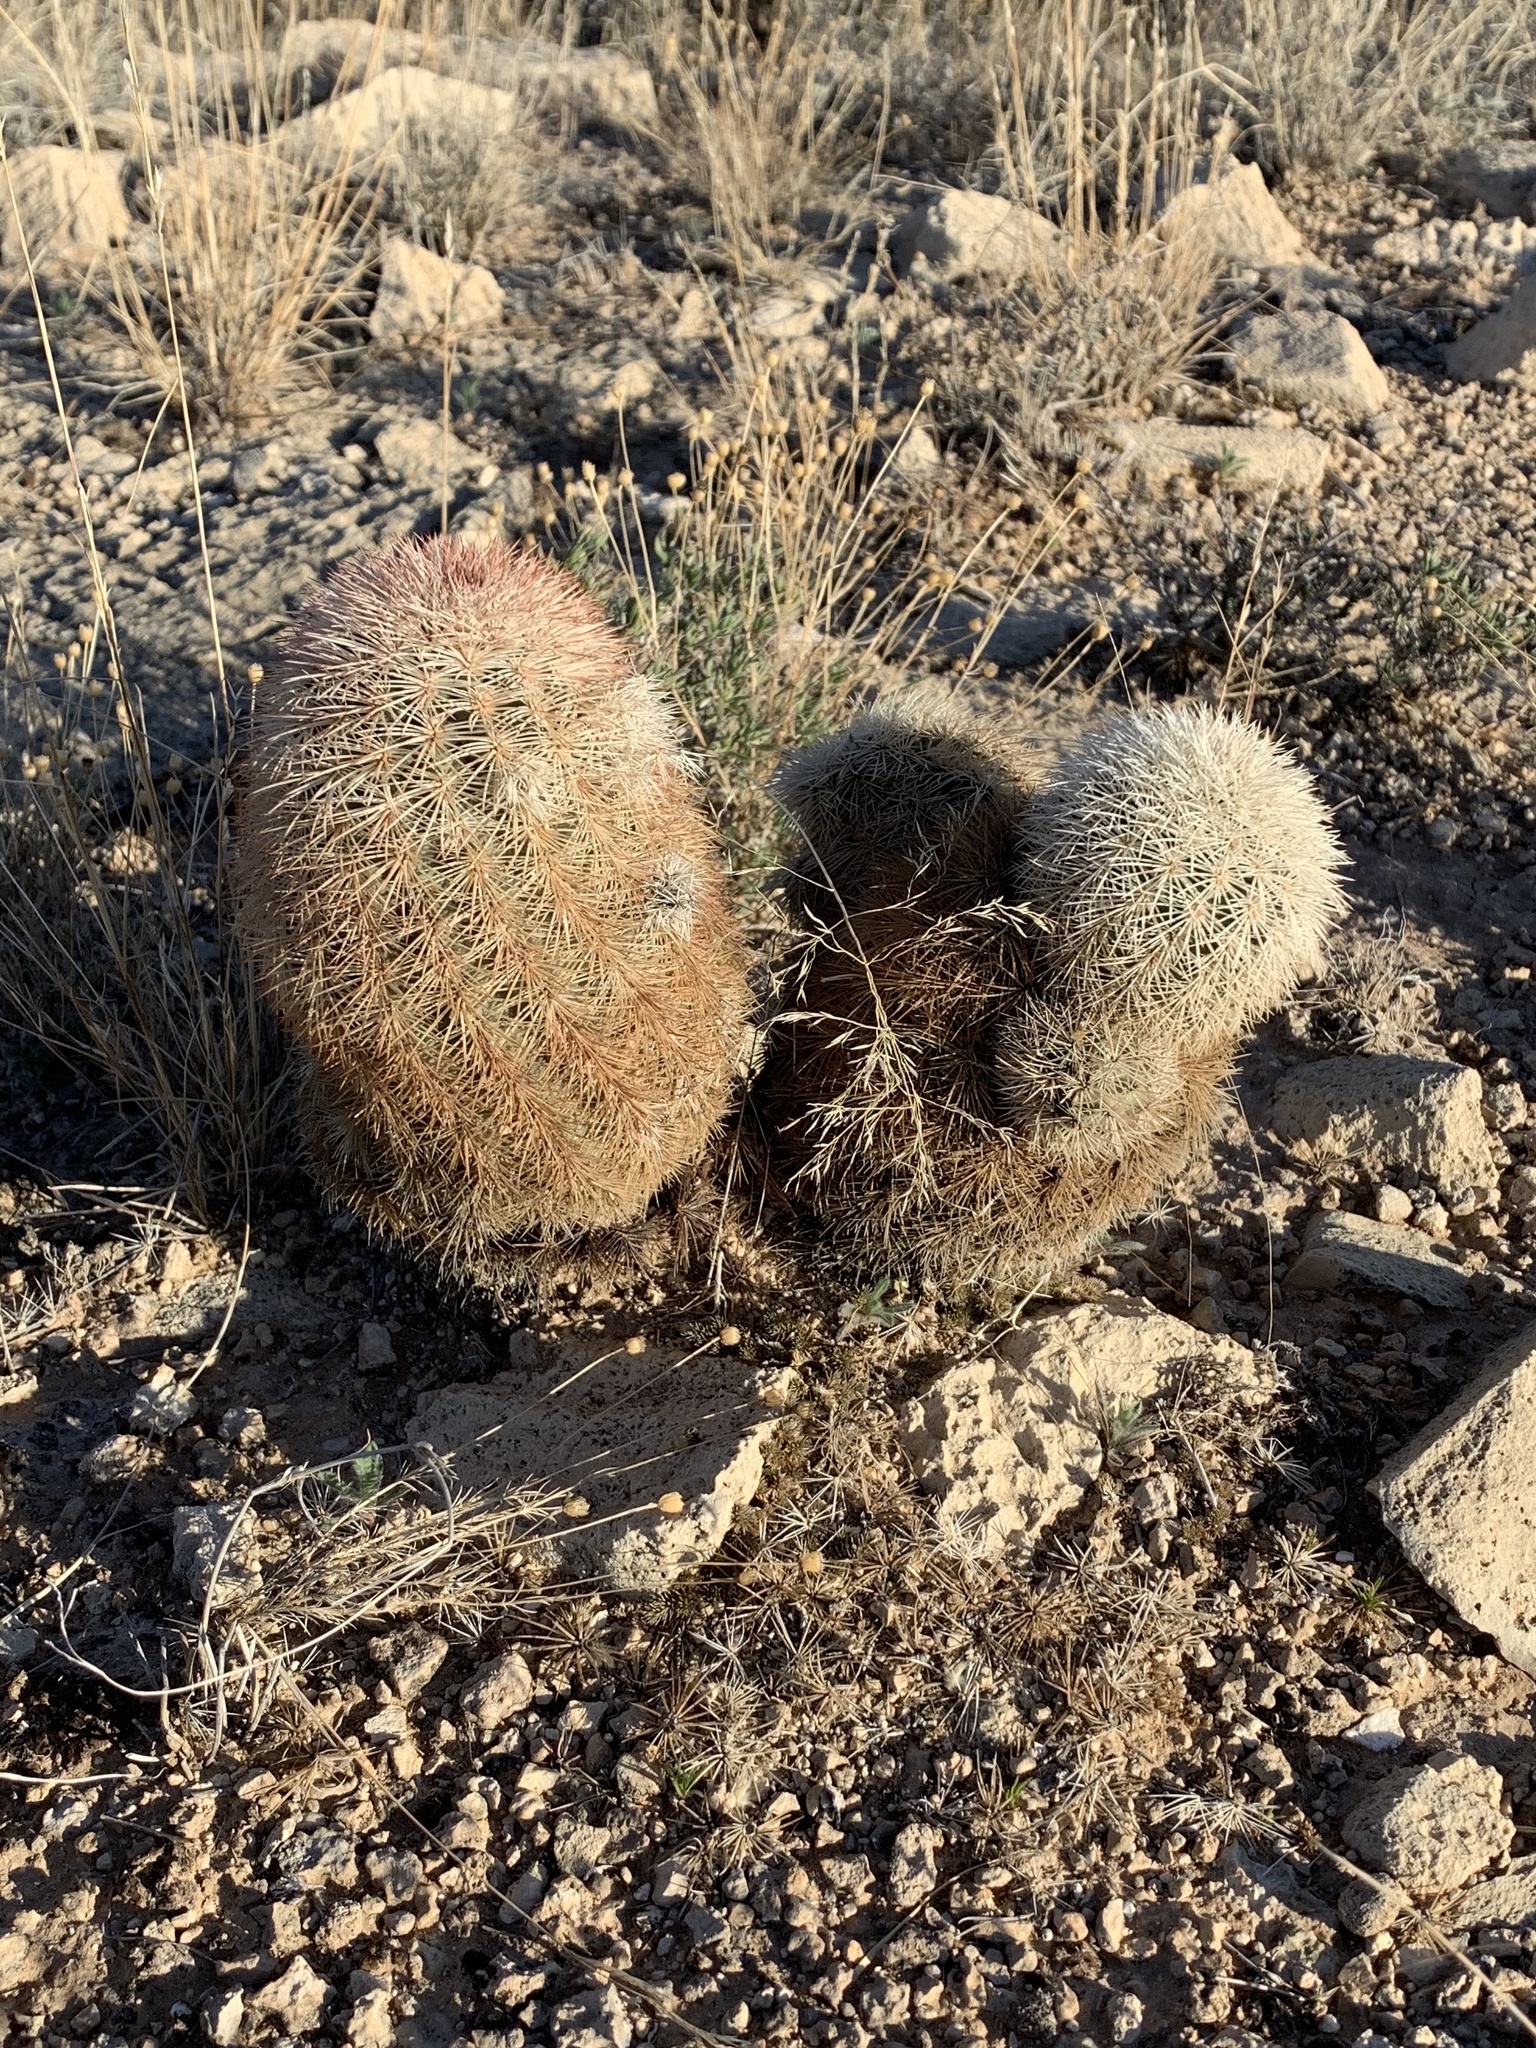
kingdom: Plantae
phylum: Tracheophyta
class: Magnoliopsida
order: Caryophyllales
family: Cactaceae
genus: Echinocereus
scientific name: Echinocereus dasyacanthus
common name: Spiny hedgehog cactus
